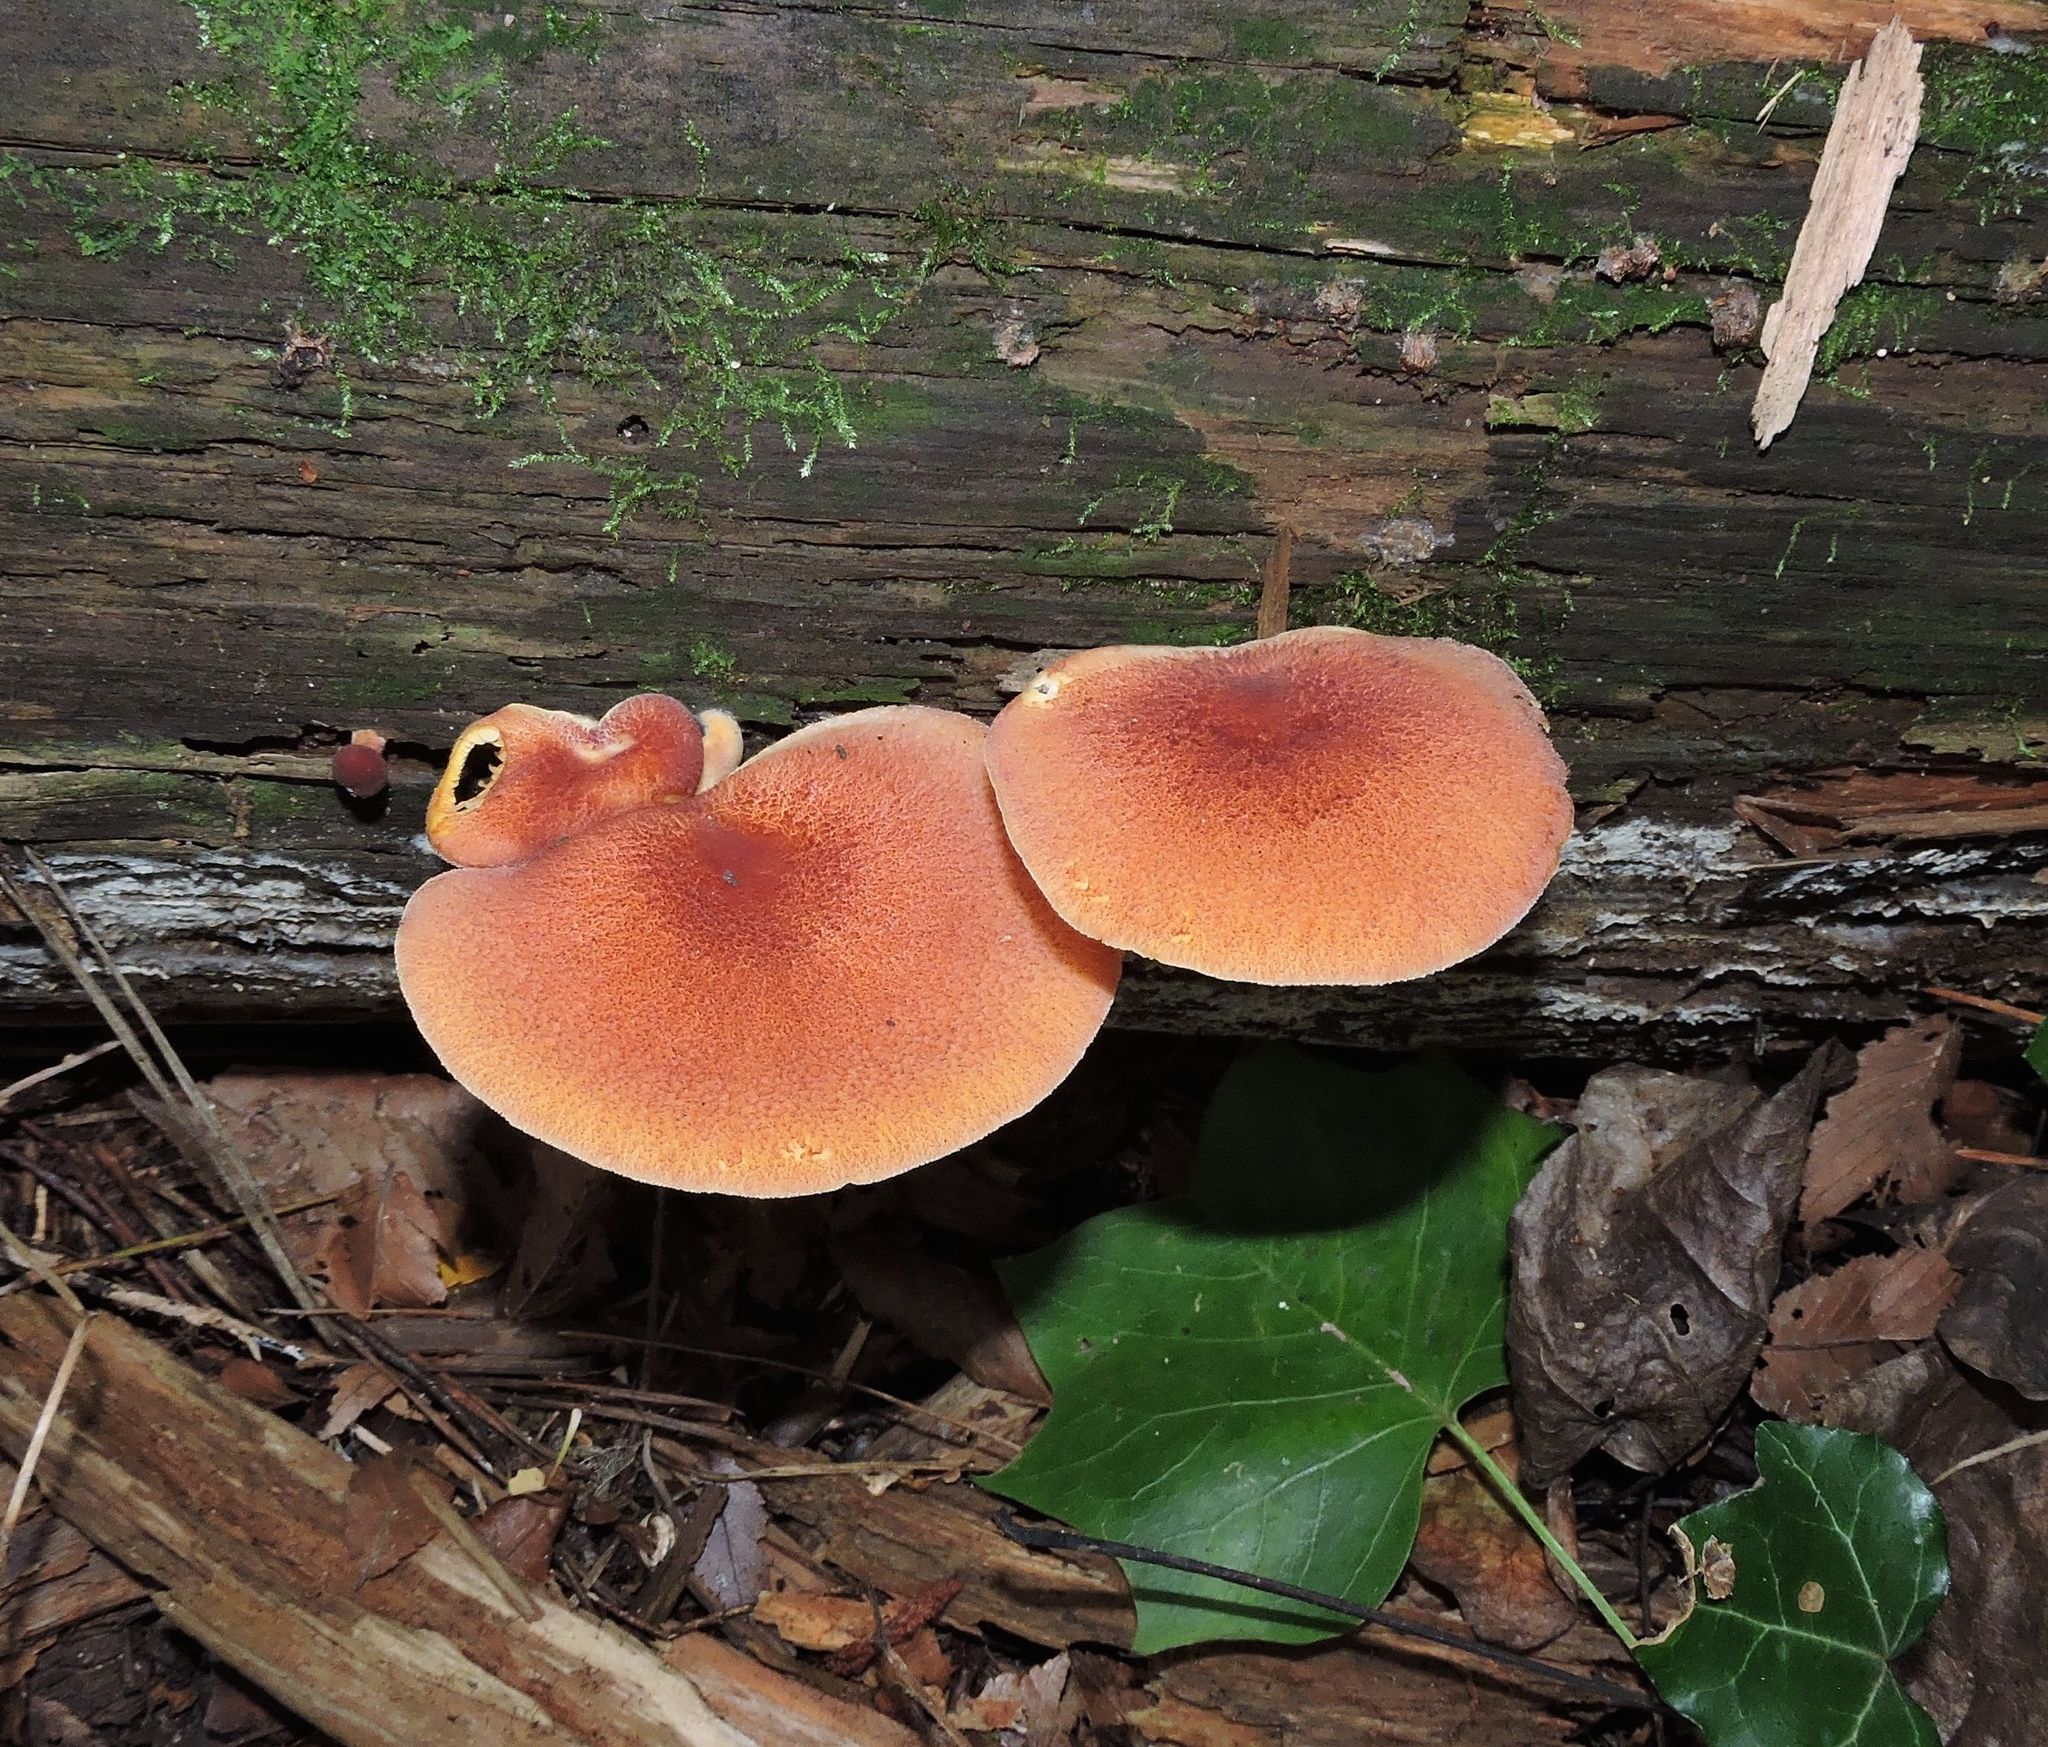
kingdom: Fungi
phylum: Basidiomycota
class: Agaricomycetes
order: Agaricales
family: Tricholomataceae
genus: Tricholomopsis
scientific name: Tricholomopsis rutilans
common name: Plums and custard
